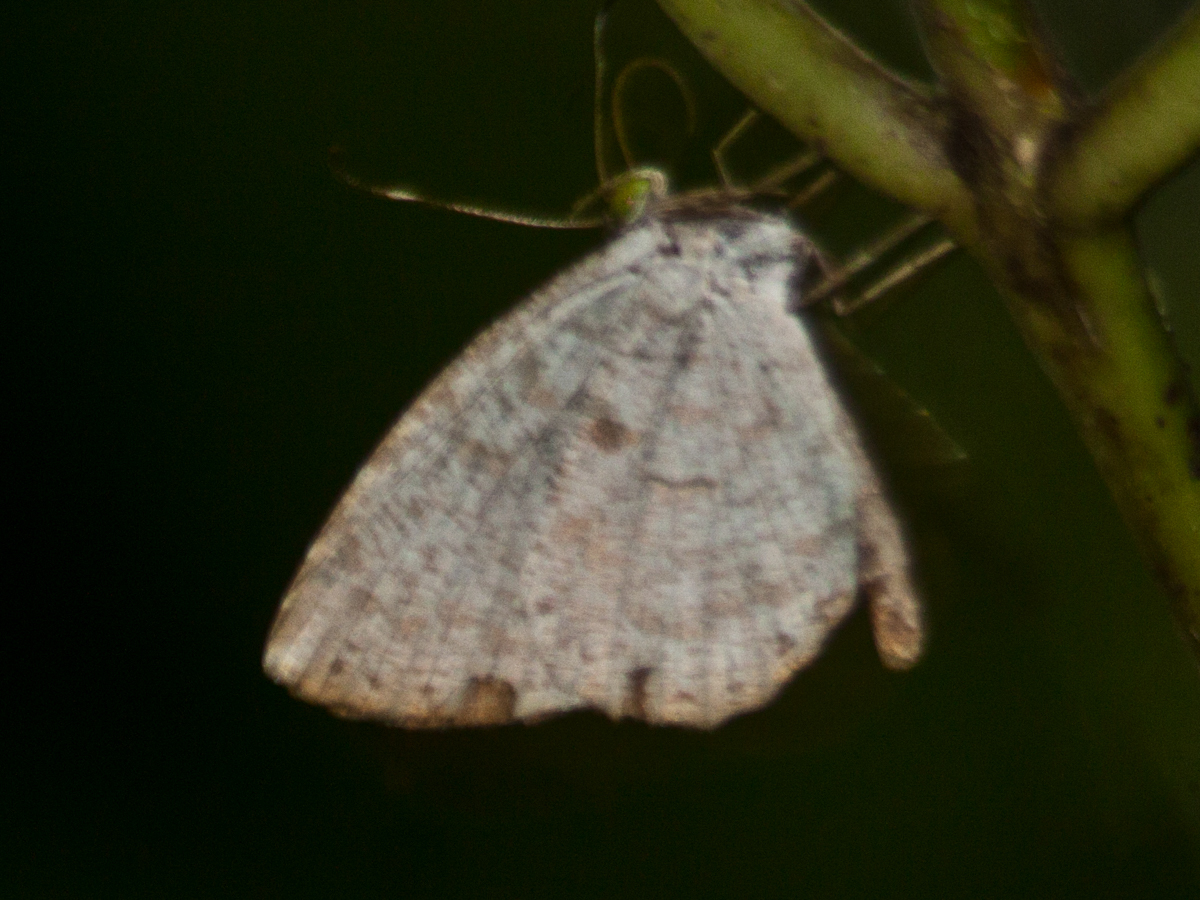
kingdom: Animalia
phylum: Arthropoda
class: Insecta
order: Lepidoptera
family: Lycaenidae
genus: Allotinus
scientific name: Allotinus substrigosa
